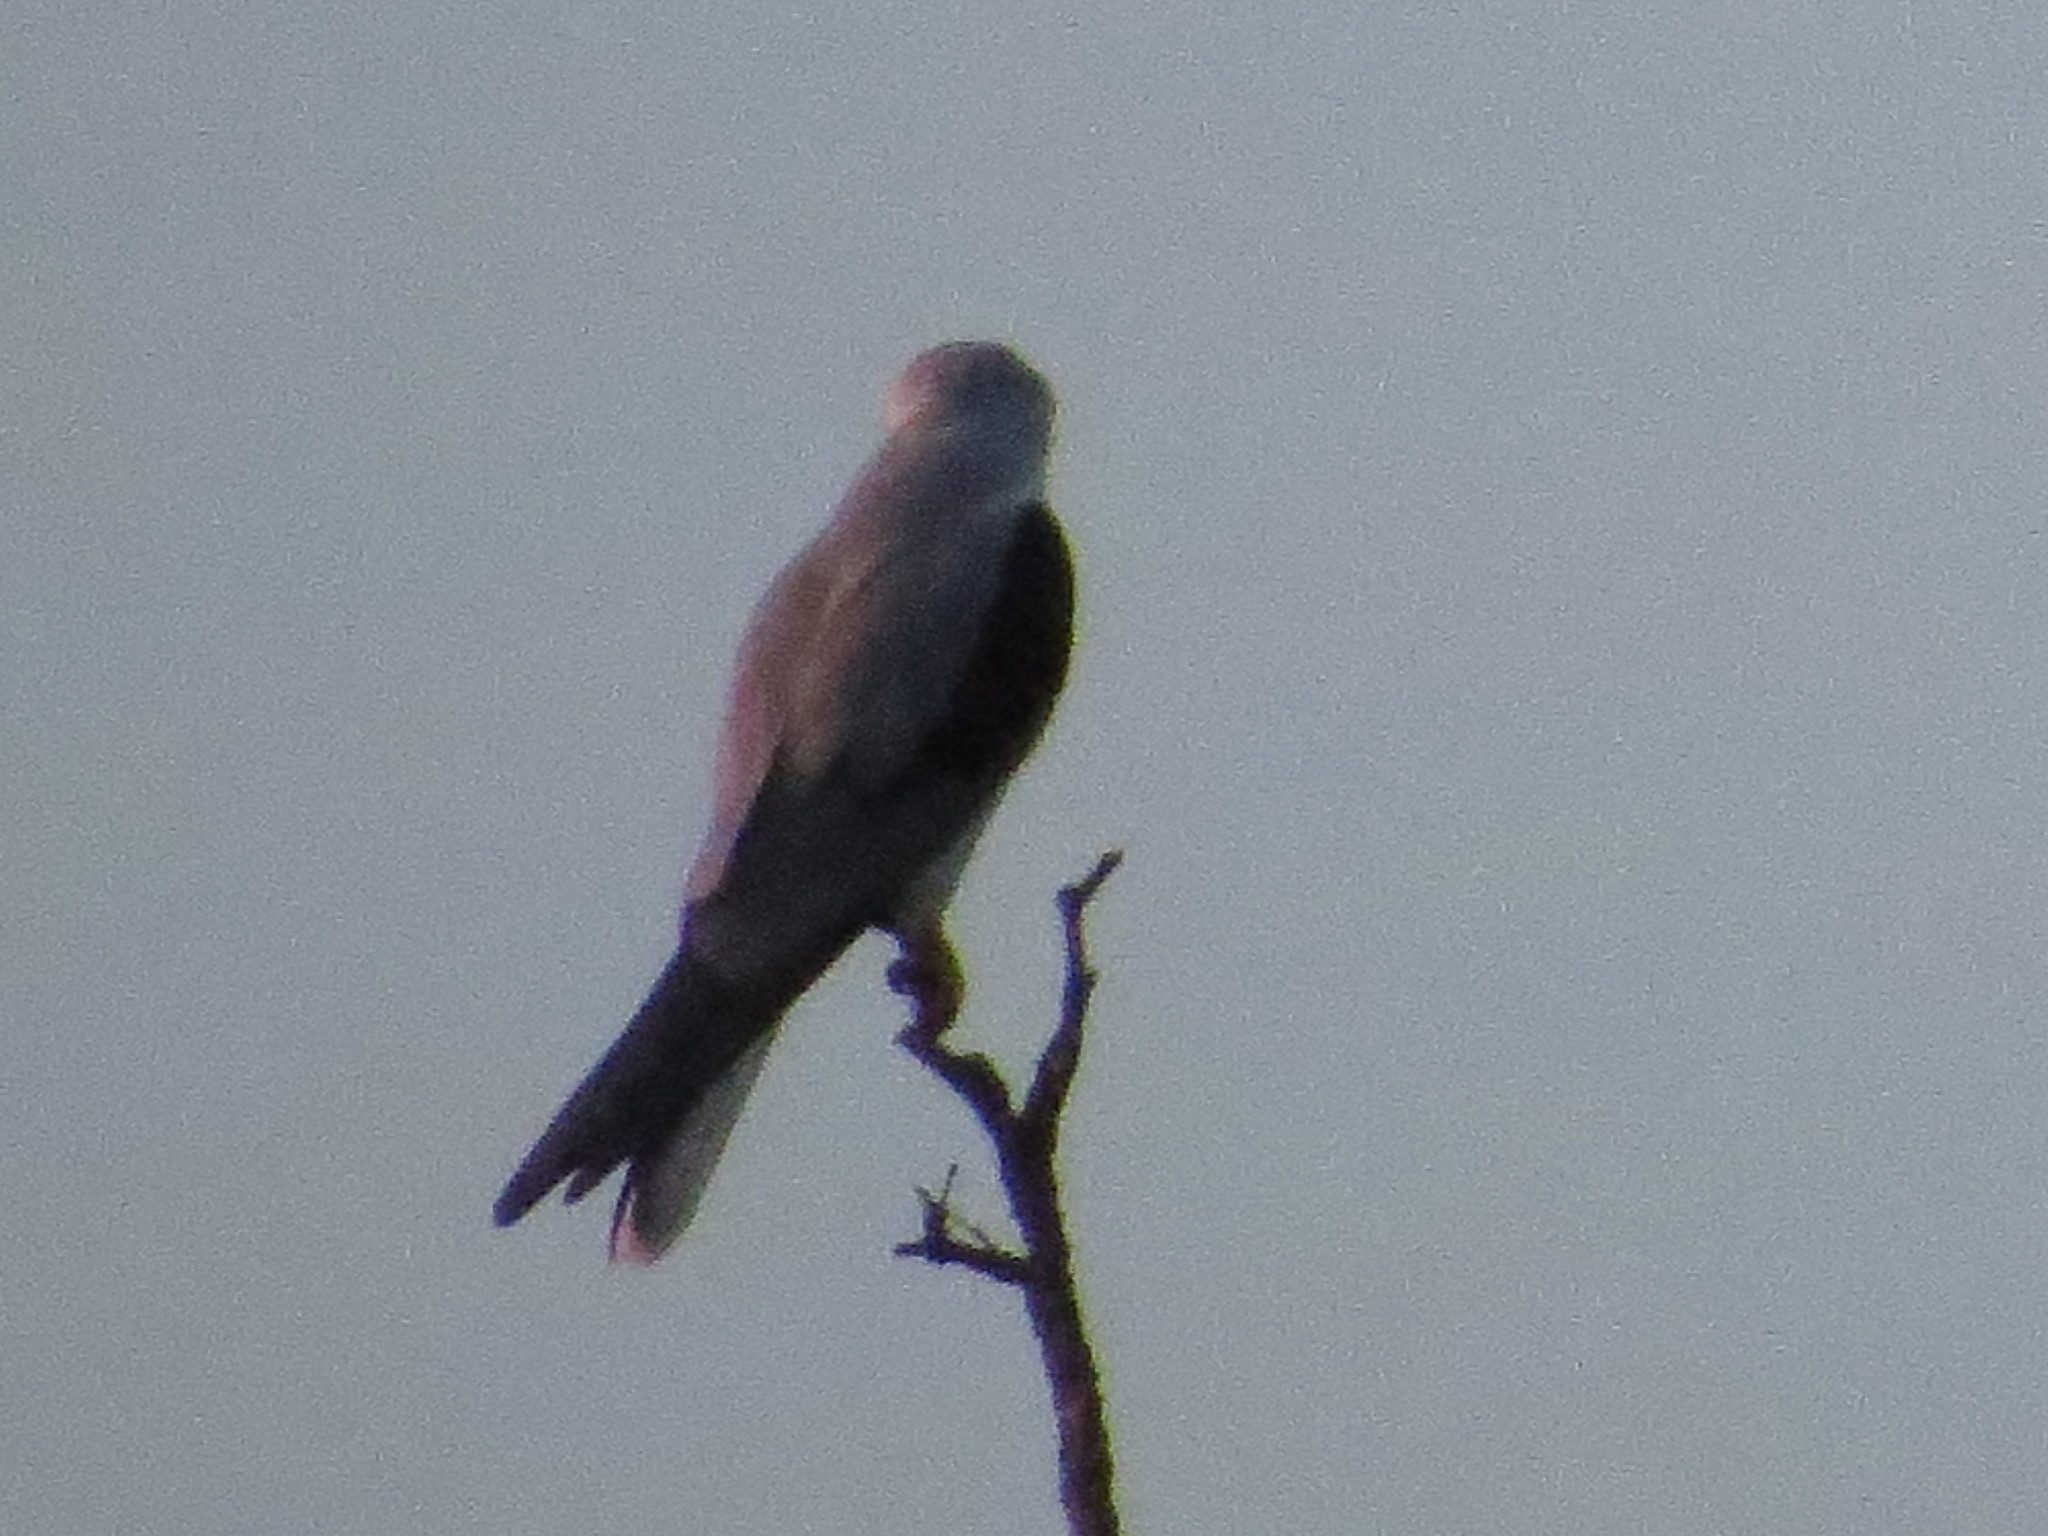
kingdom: Animalia
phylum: Chordata
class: Aves
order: Accipitriformes
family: Accipitridae
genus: Elanus
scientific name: Elanus leucurus
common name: White-tailed kite
